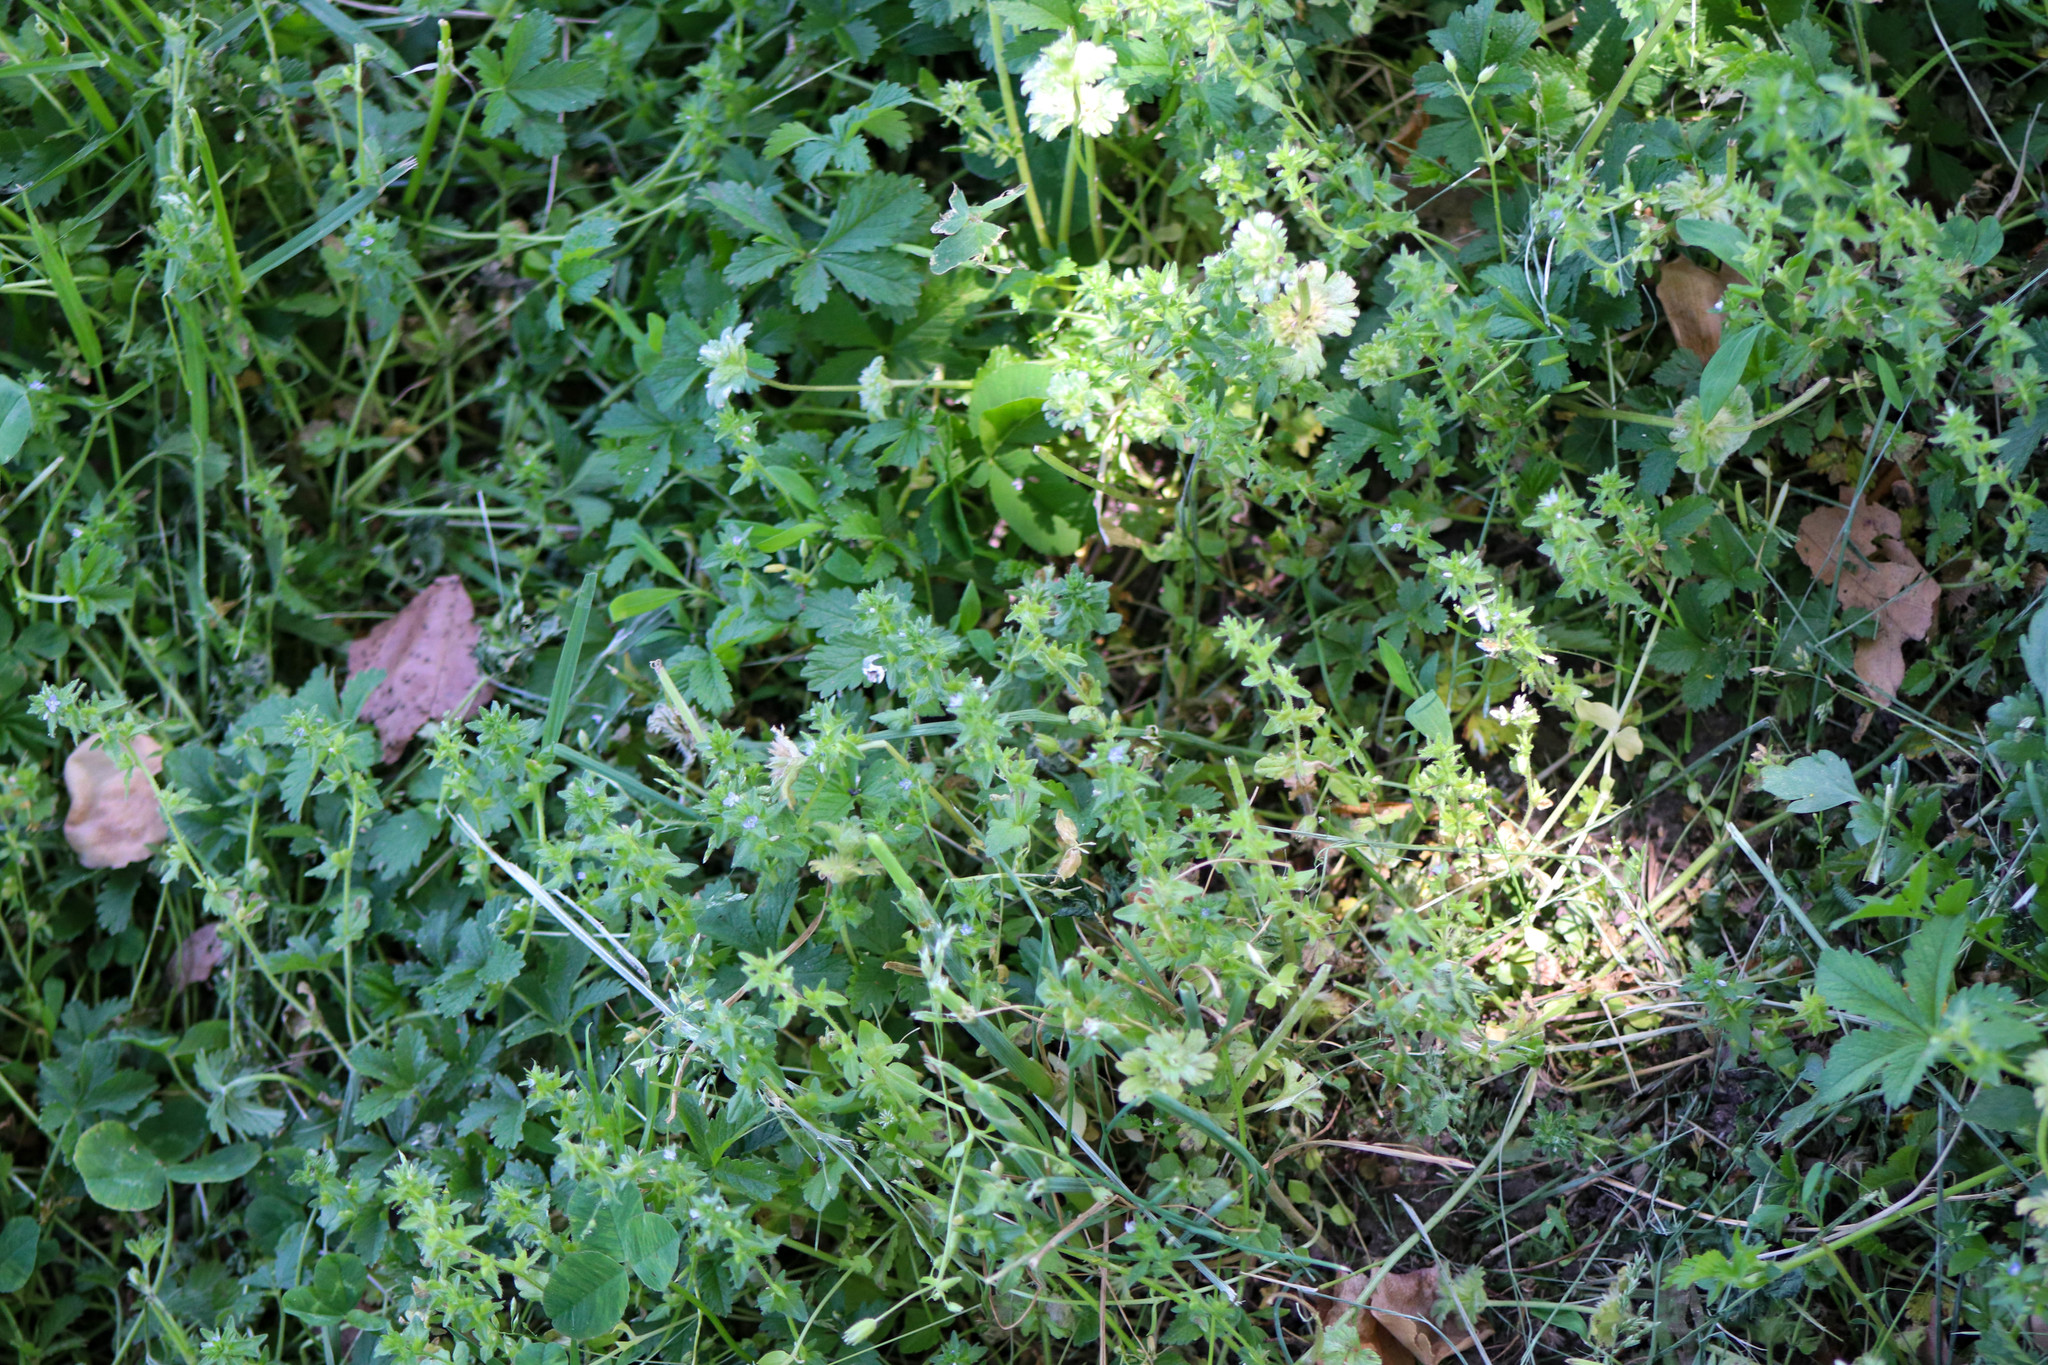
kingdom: Plantae
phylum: Tracheophyta
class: Magnoliopsida
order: Lamiales
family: Plantaginaceae
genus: Veronica
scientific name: Veronica arvensis
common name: Corn speedwell
